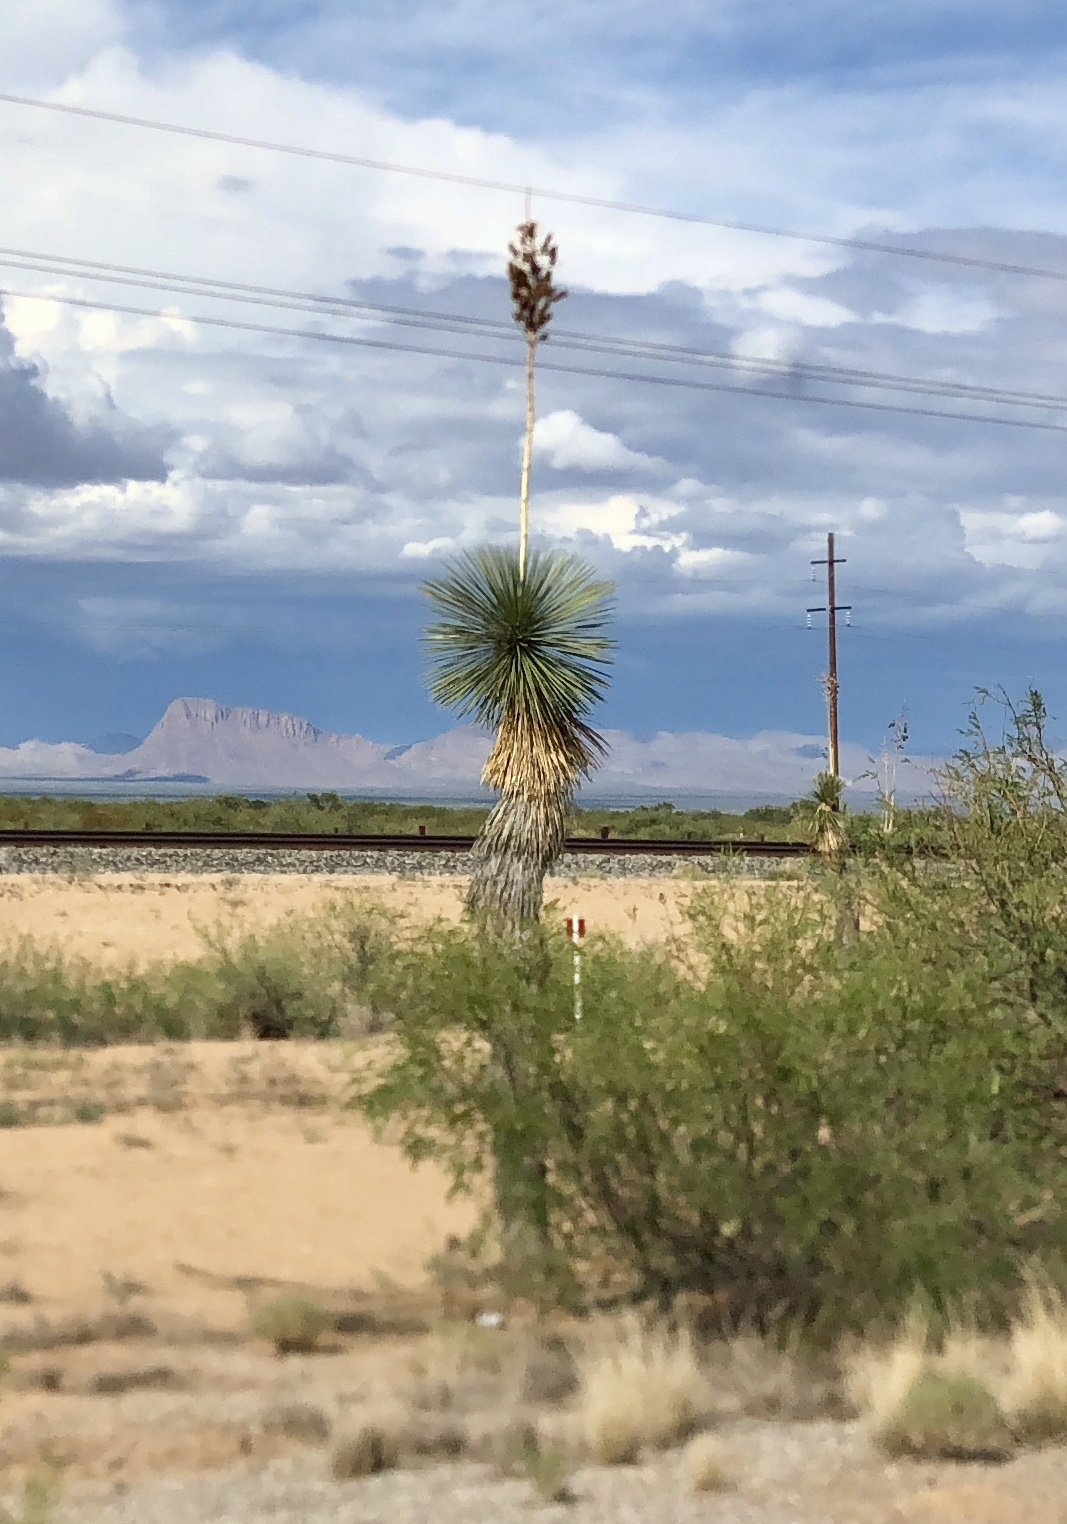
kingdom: Plantae
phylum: Tracheophyta
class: Liliopsida
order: Asparagales
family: Asparagaceae
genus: Yucca
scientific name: Yucca elata
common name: Palmella
